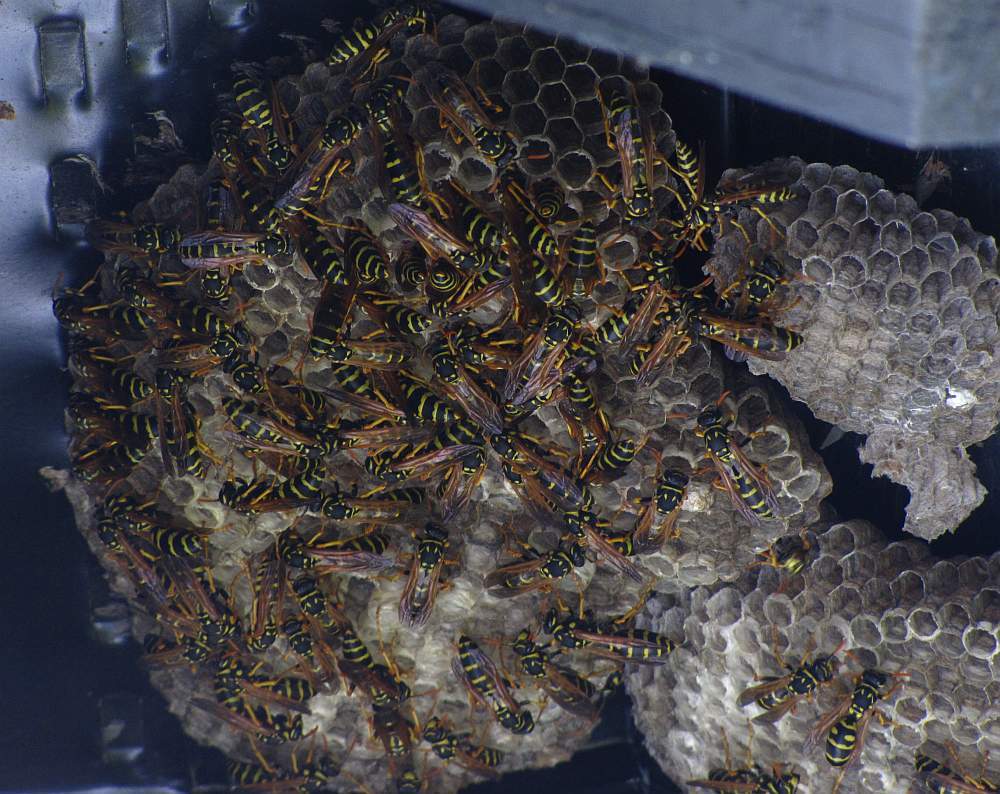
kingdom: Animalia
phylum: Arthropoda
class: Insecta
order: Hymenoptera
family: Eumenidae
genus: Polistes
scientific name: Polistes dominula
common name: Paper wasp
